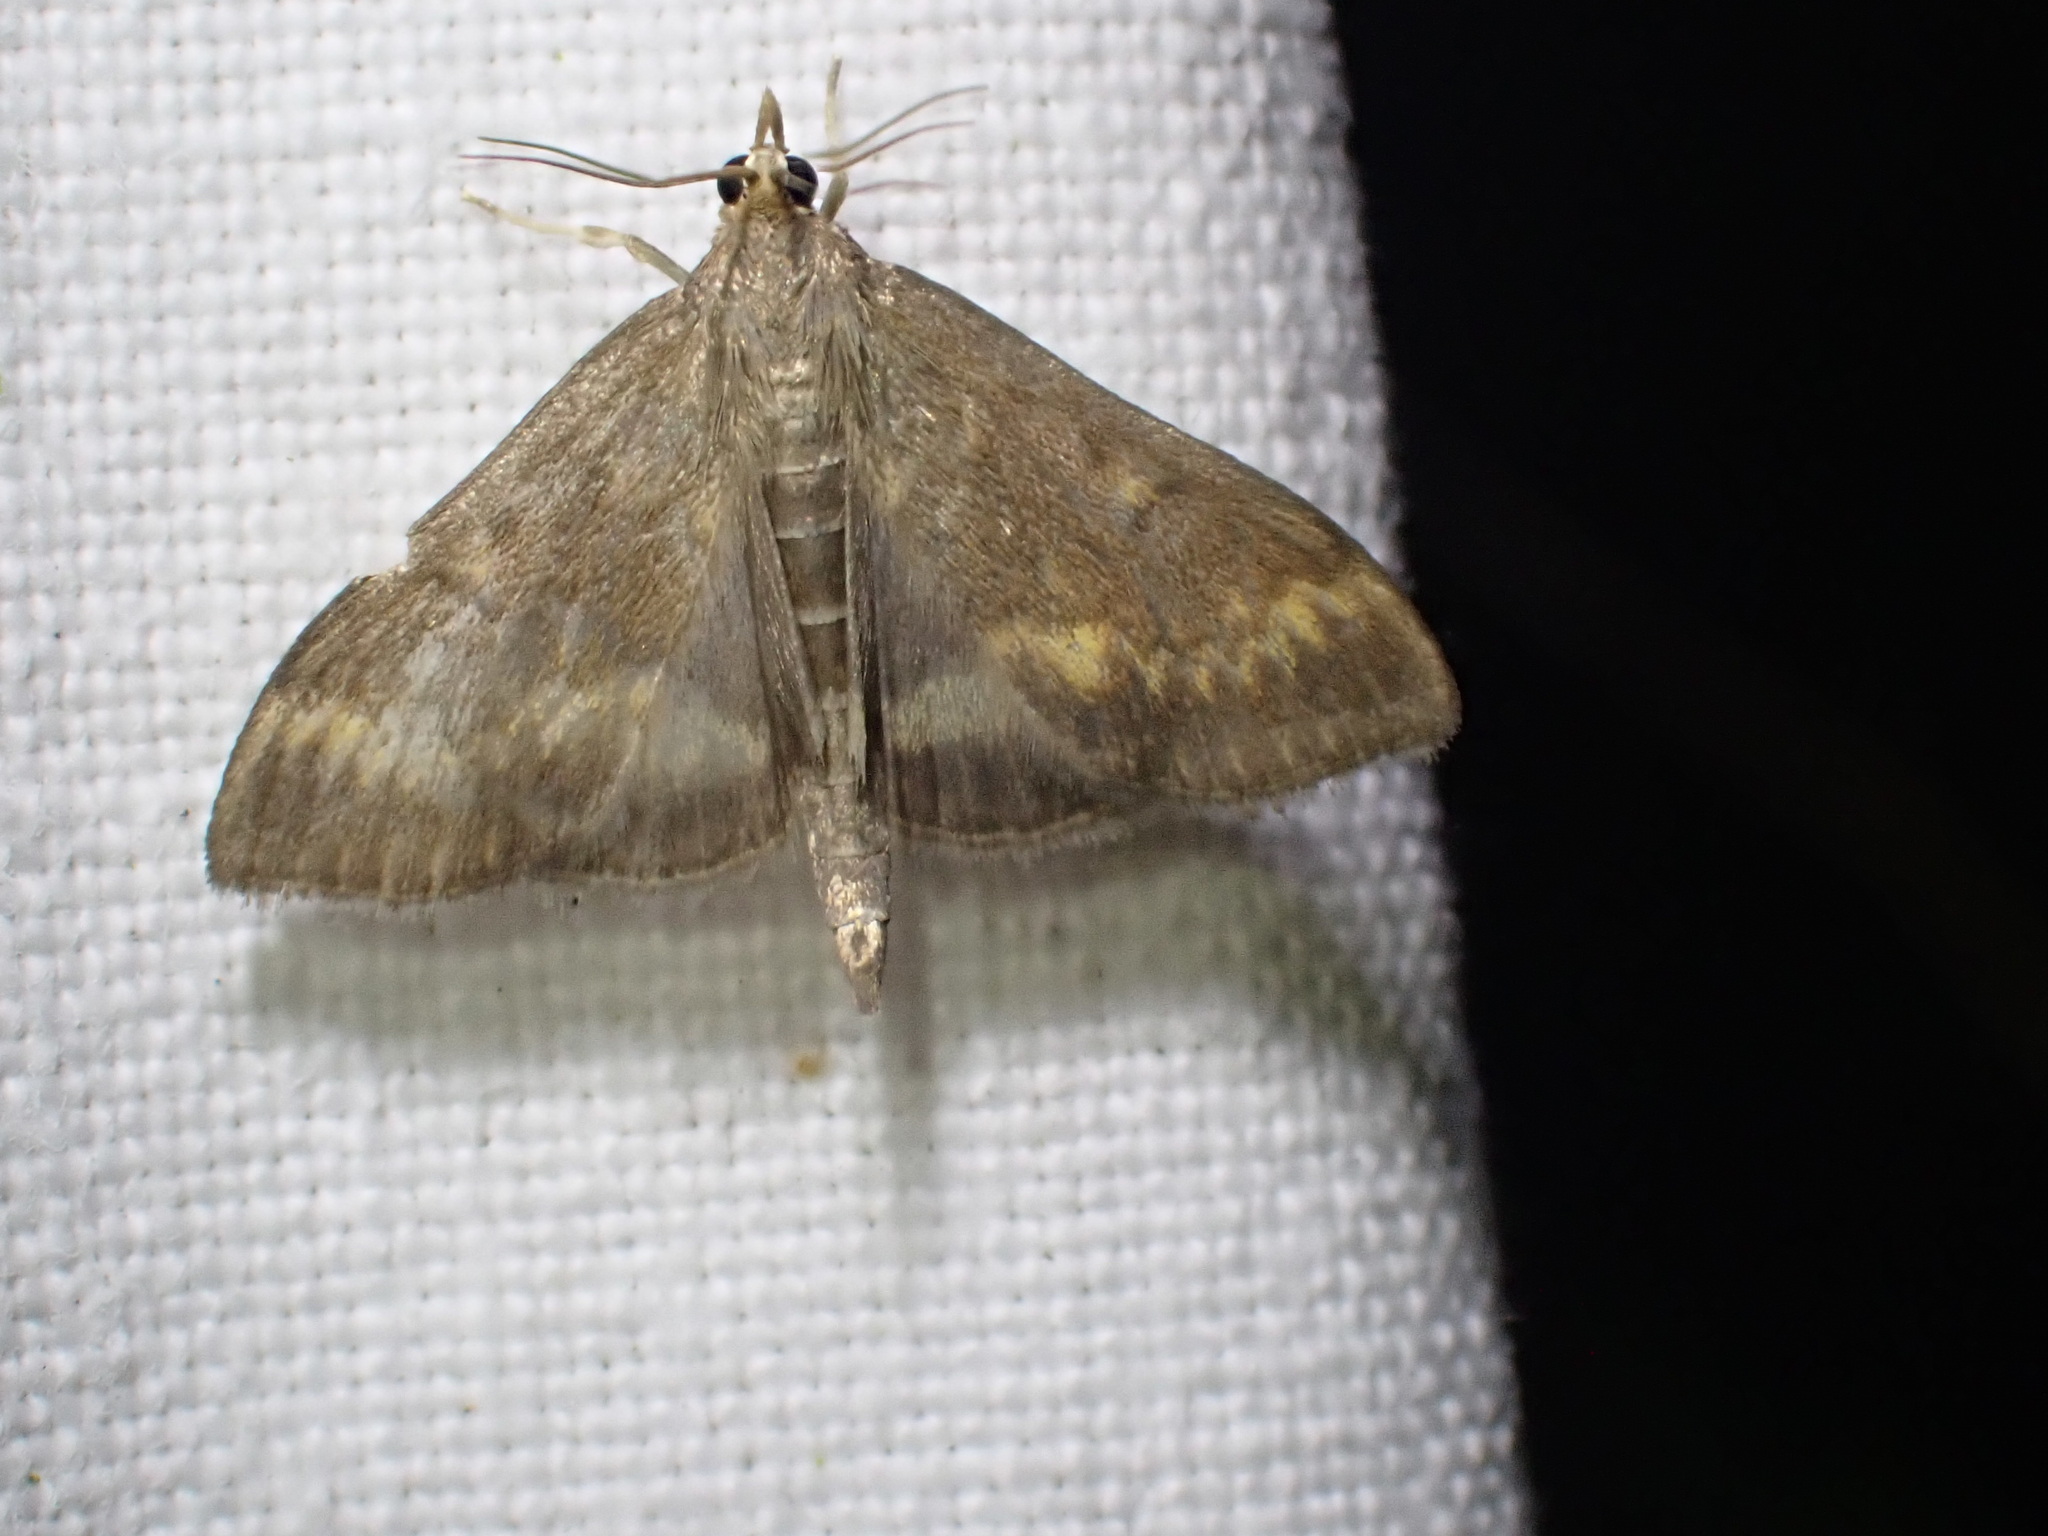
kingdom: Animalia
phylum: Arthropoda
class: Insecta
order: Lepidoptera
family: Crambidae
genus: Ostrinia
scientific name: Ostrinia nubilalis
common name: European corn borer
